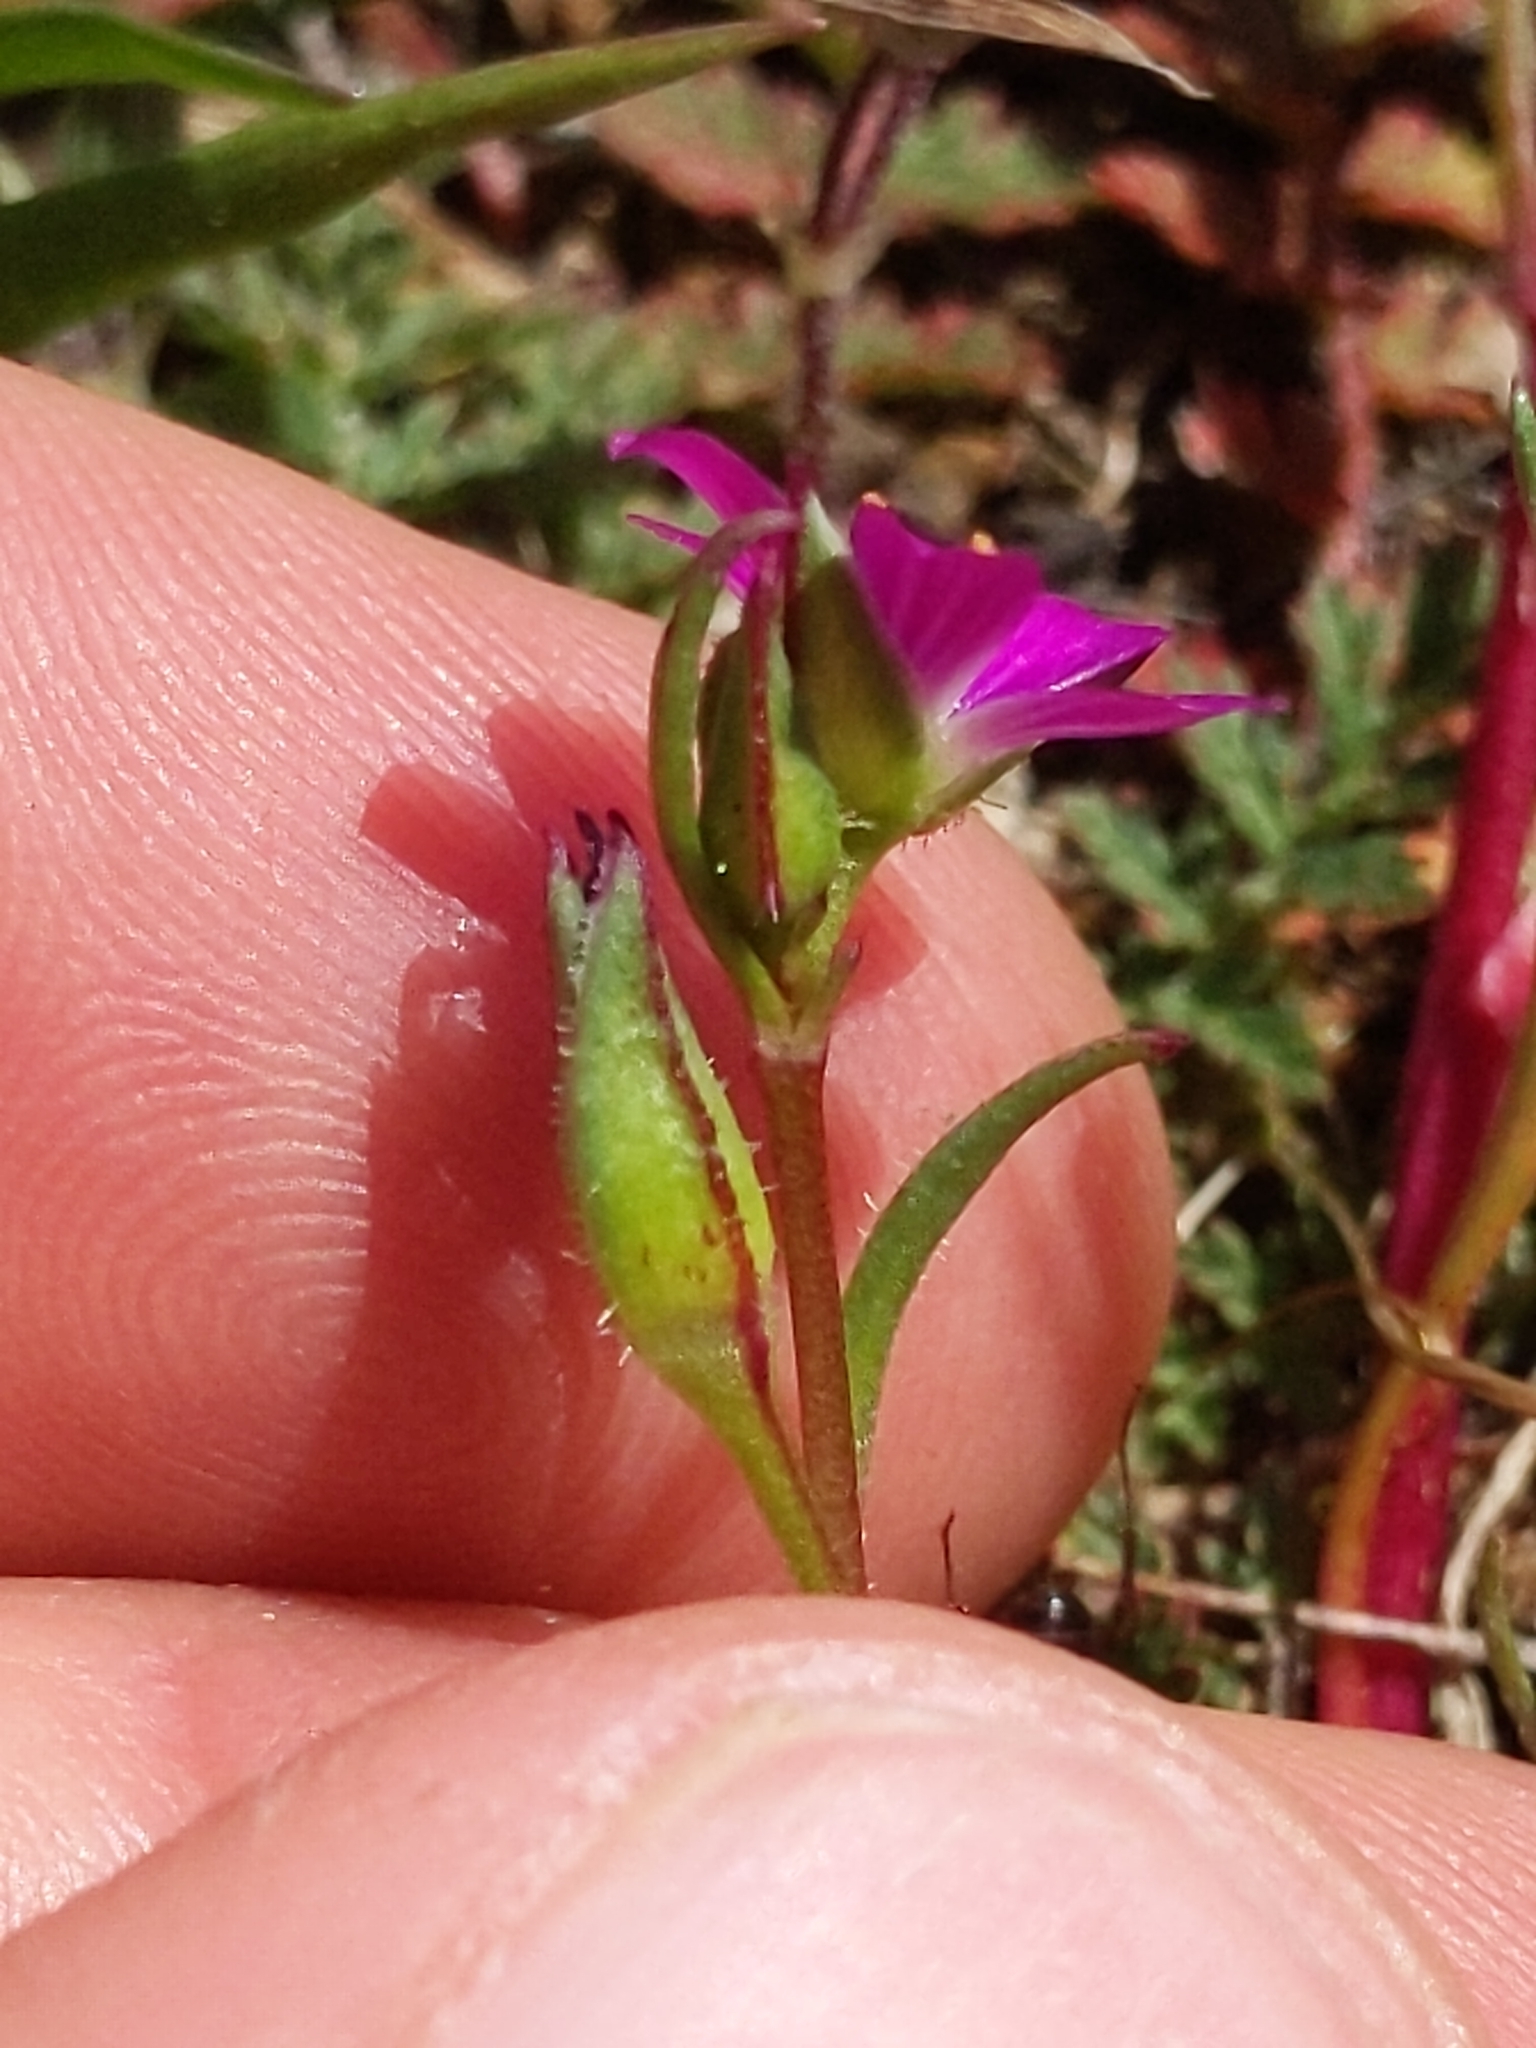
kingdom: Plantae
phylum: Tracheophyta
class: Magnoliopsida
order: Caryophyllales
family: Montiaceae
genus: Calandrinia
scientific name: Calandrinia menziesii
